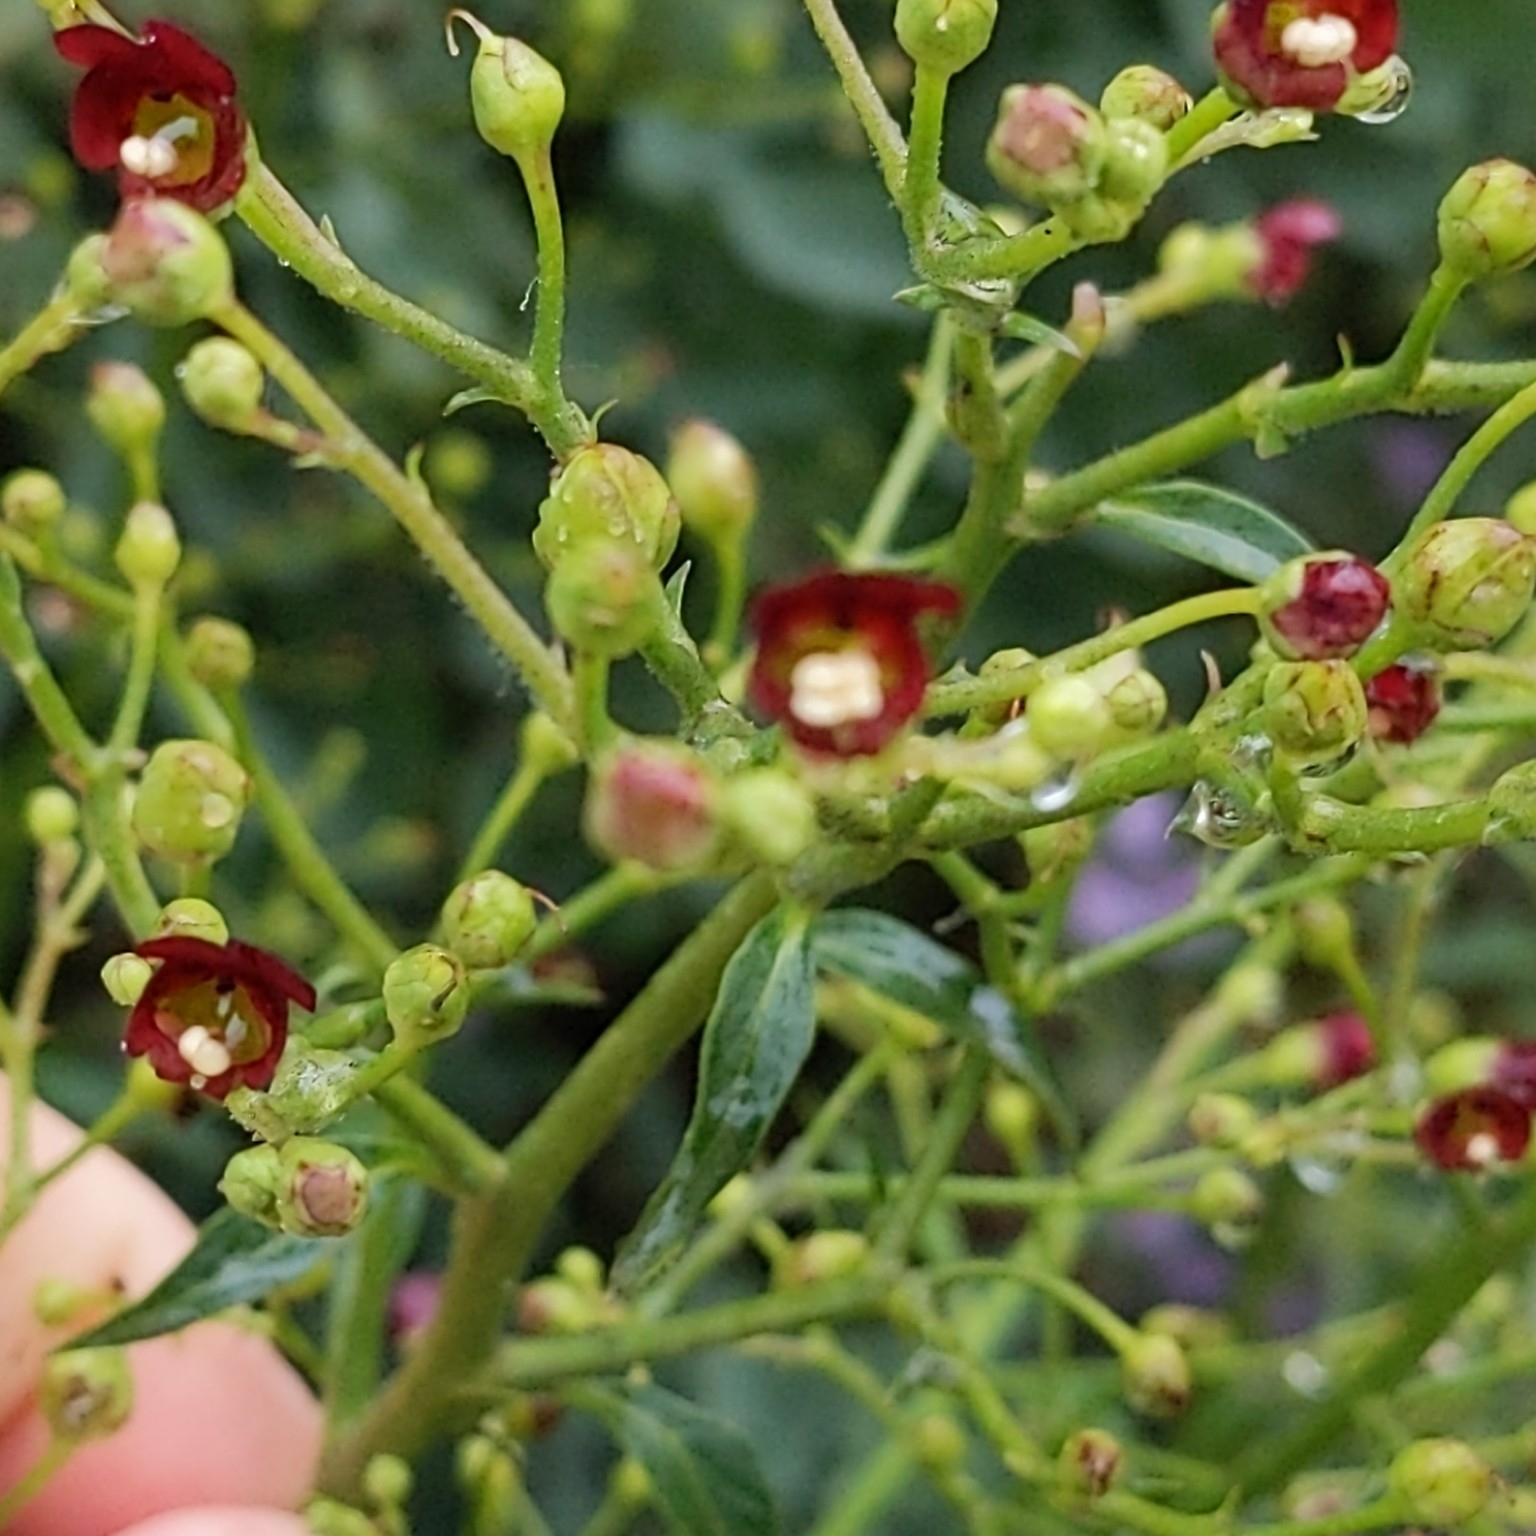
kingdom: Plantae
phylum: Tracheophyta
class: Magnoliopsida
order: Lamiales
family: Scrophulariaceae
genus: Scrophularia
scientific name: Scrophularia californica
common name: California figwort
